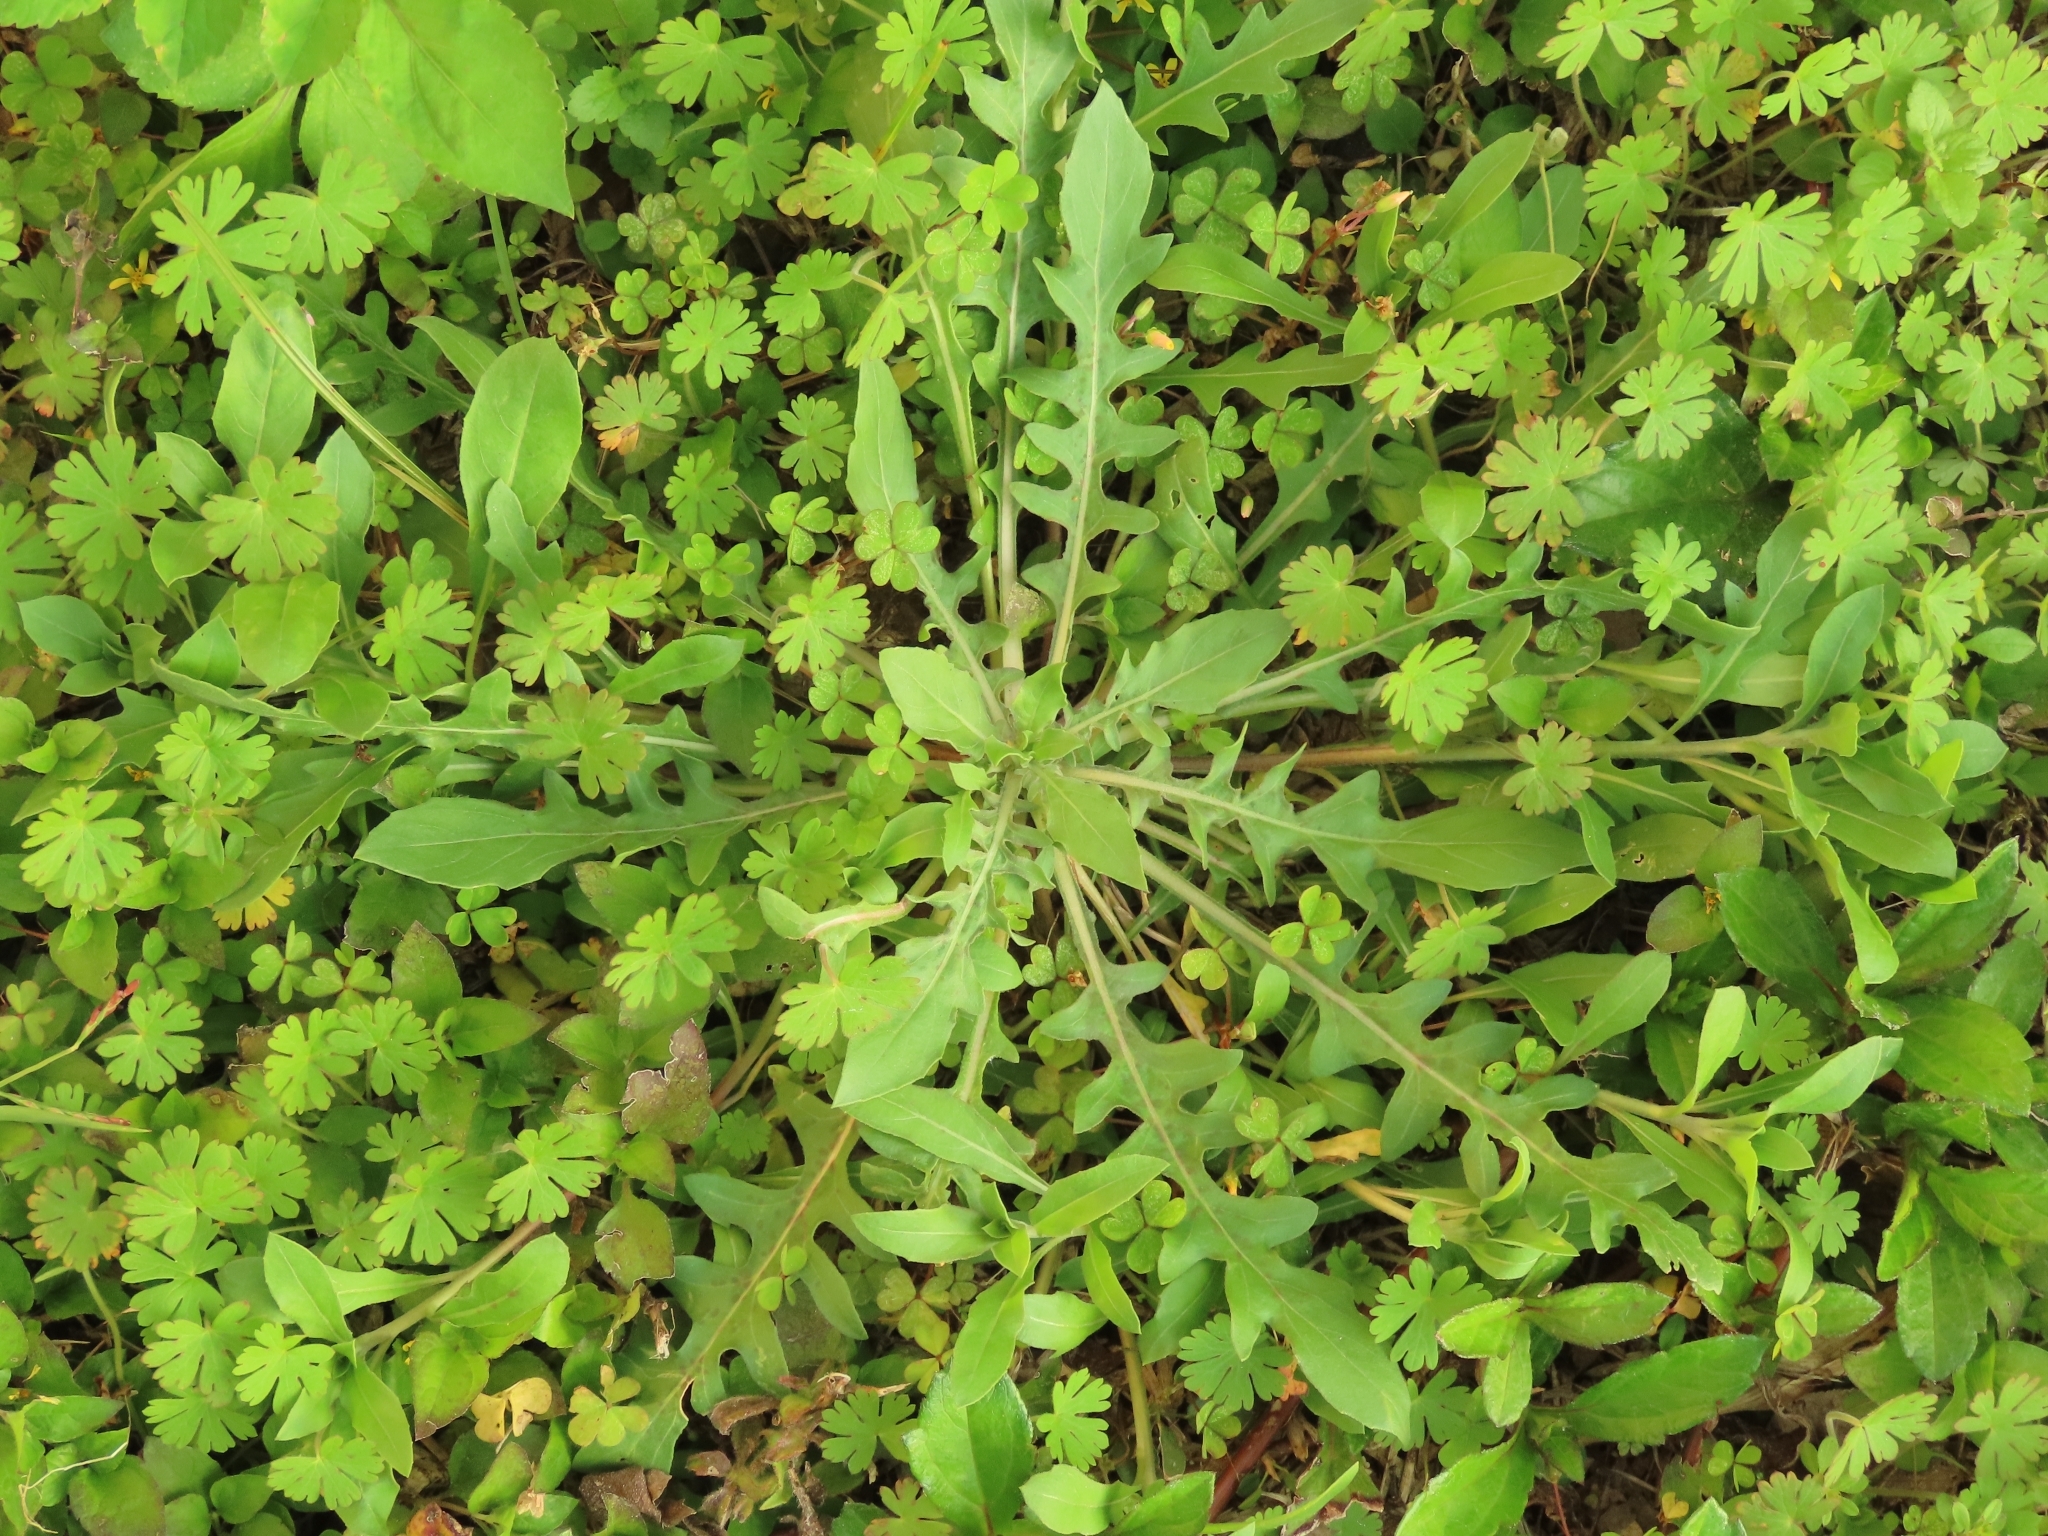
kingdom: Plantae
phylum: Tracheophyta
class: Magnoliopsida
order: Myrtales
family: Onagraceae
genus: Oenothera
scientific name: Oenothera laciniata
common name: Cut-leaved evening-primrose
